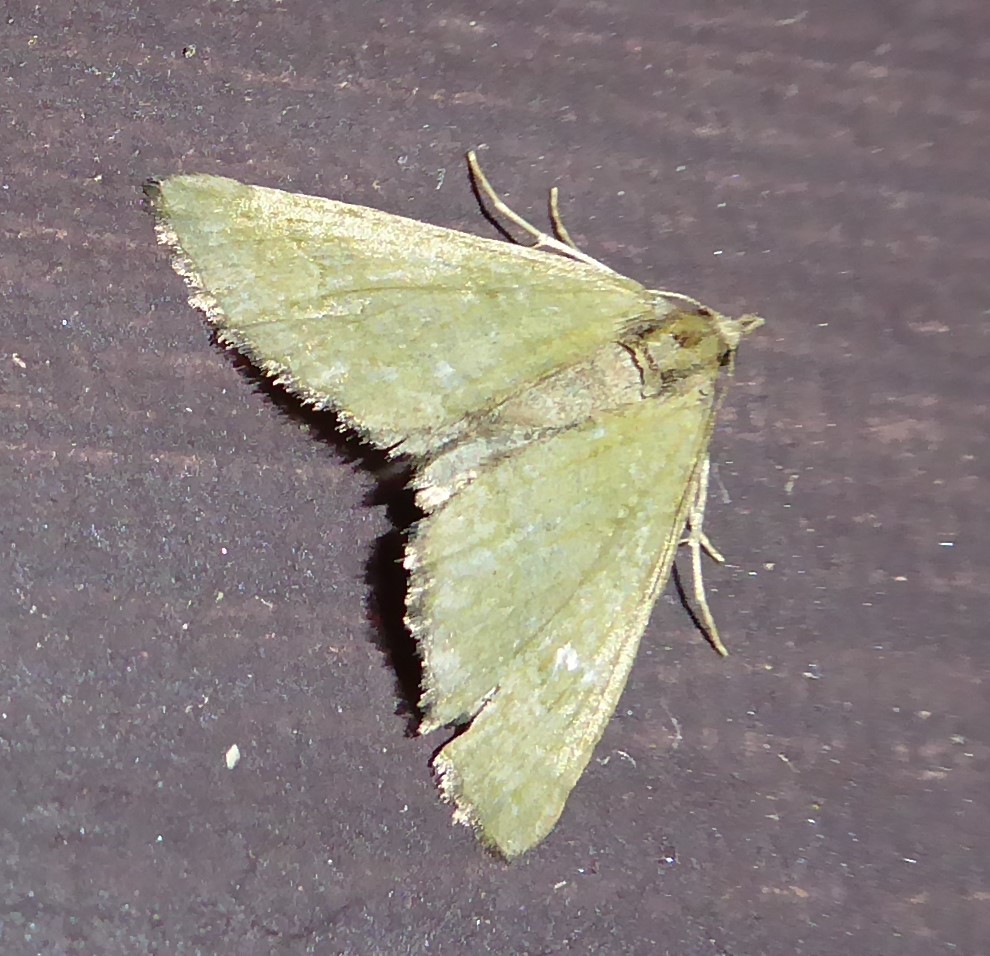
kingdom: Animalia
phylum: Arthropoda
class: Insecta
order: Lepidoptera
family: Geometridae
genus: Epyaxa
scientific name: Epyaxa rosearia
